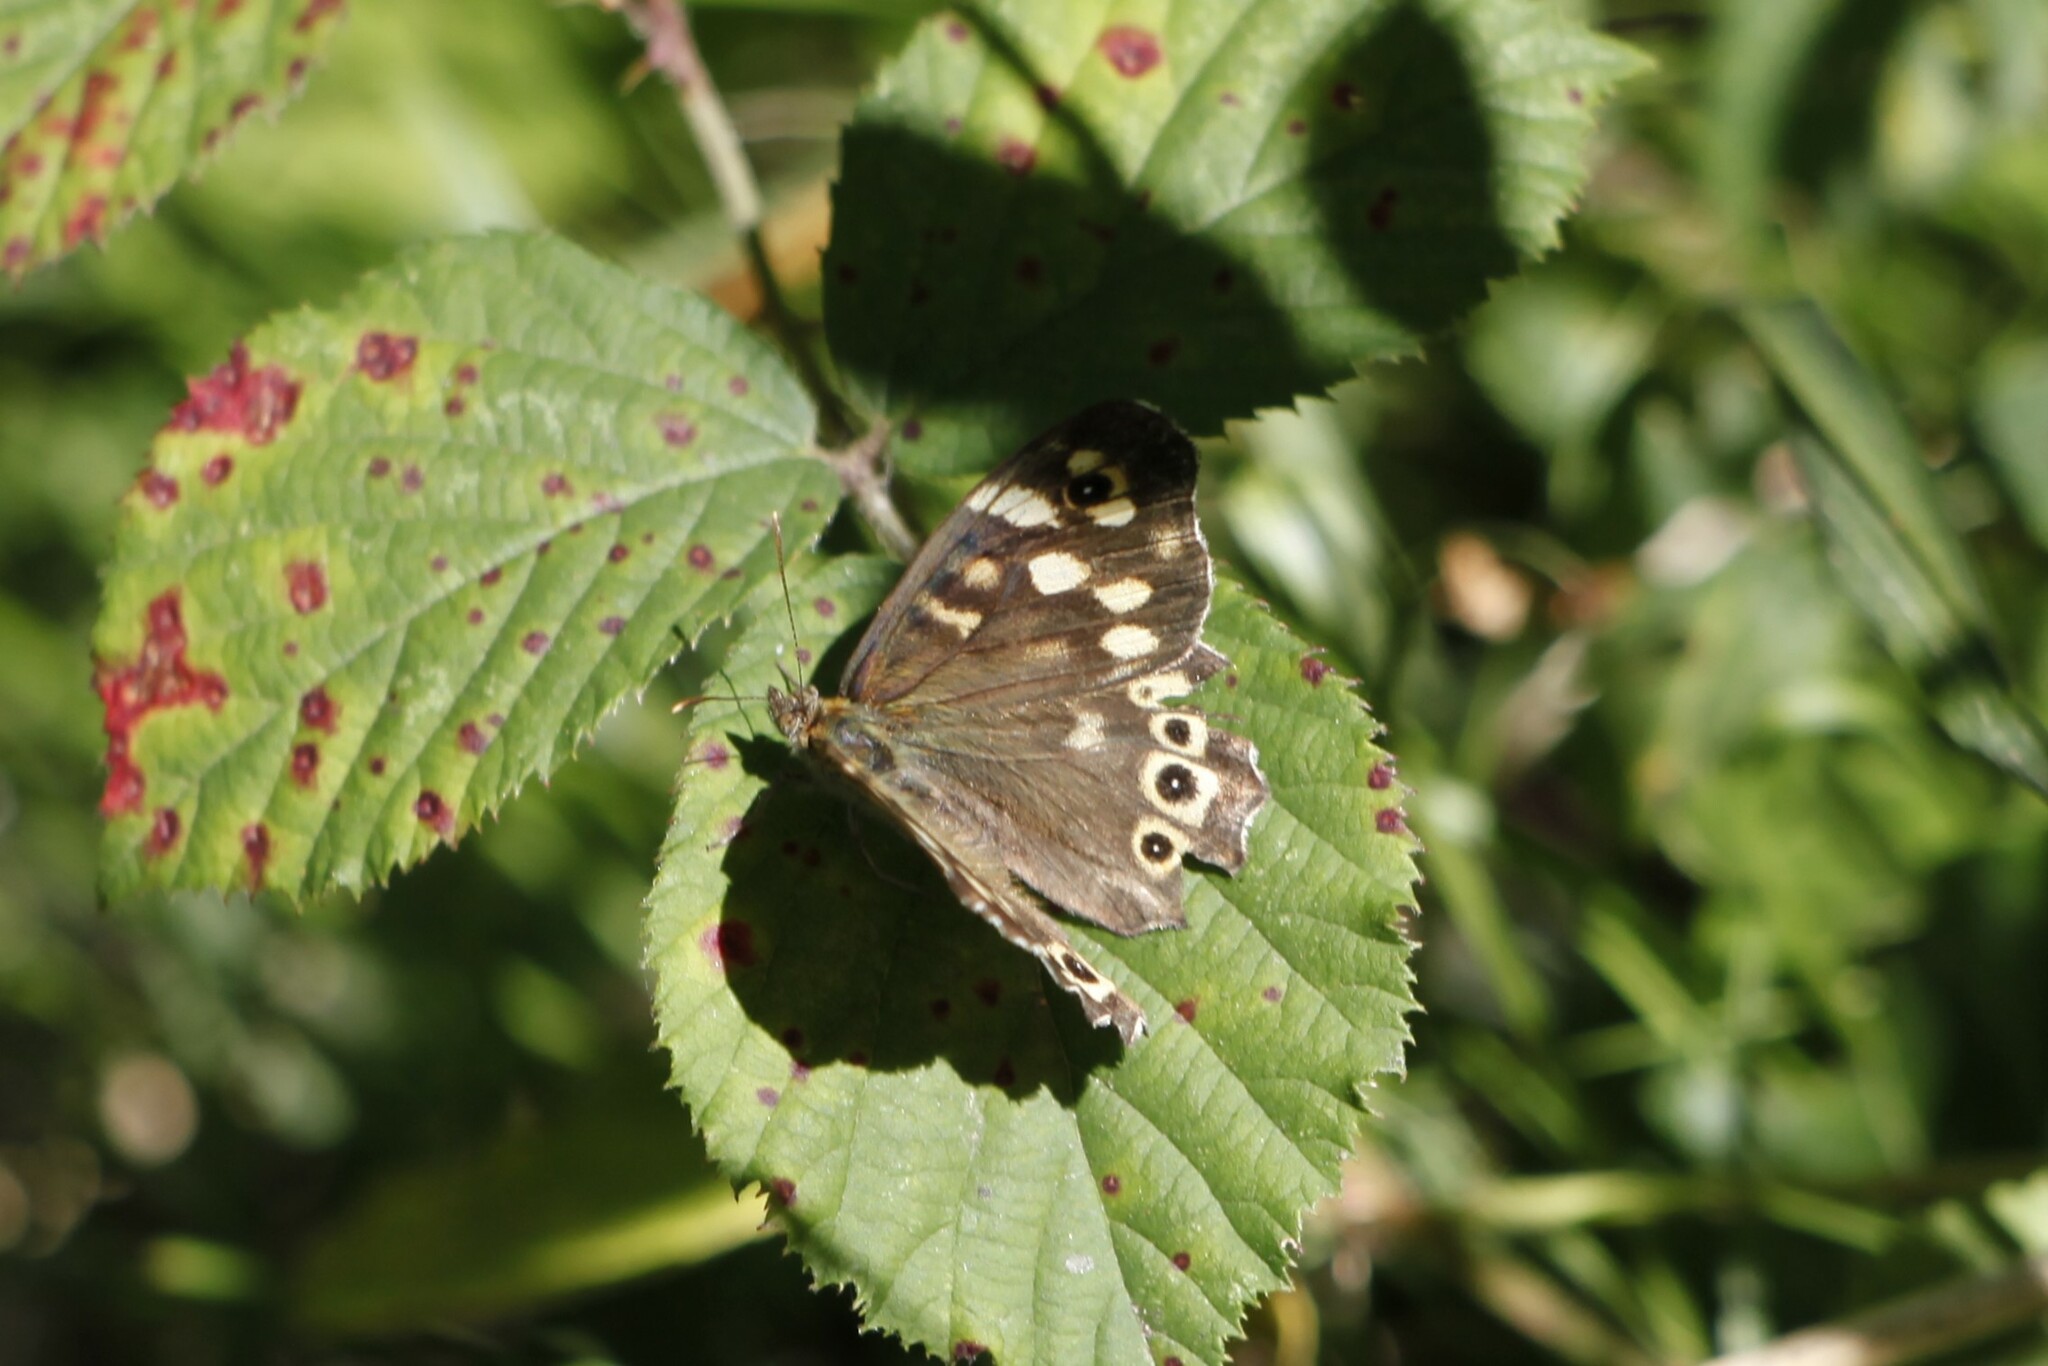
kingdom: Animalia
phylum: Arthropoda
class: Insecta
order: Lepidoptera
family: Nymphalidae
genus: Pararge
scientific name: Pararge aegeria
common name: Speckled wood
